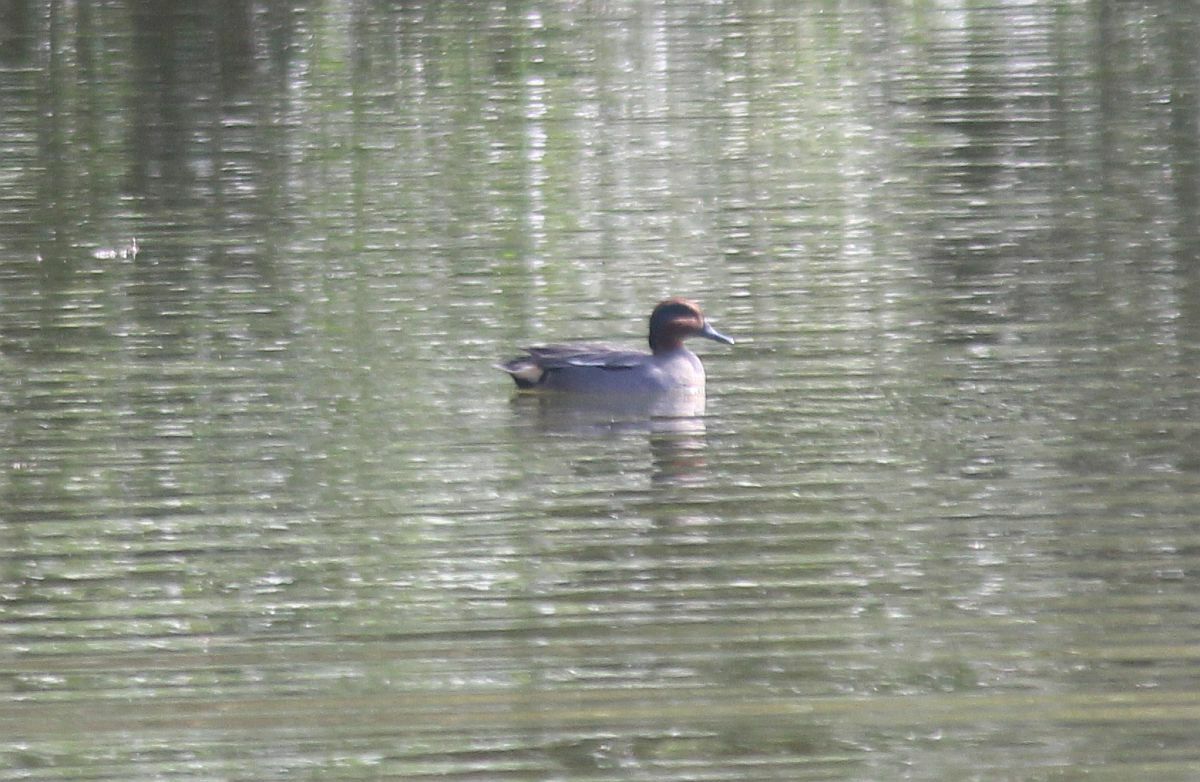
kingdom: Animalia
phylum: Chordata
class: Aves
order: Anseriformes
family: Anatidae
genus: Anas
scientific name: Anas crecca
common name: Eurasian teal
